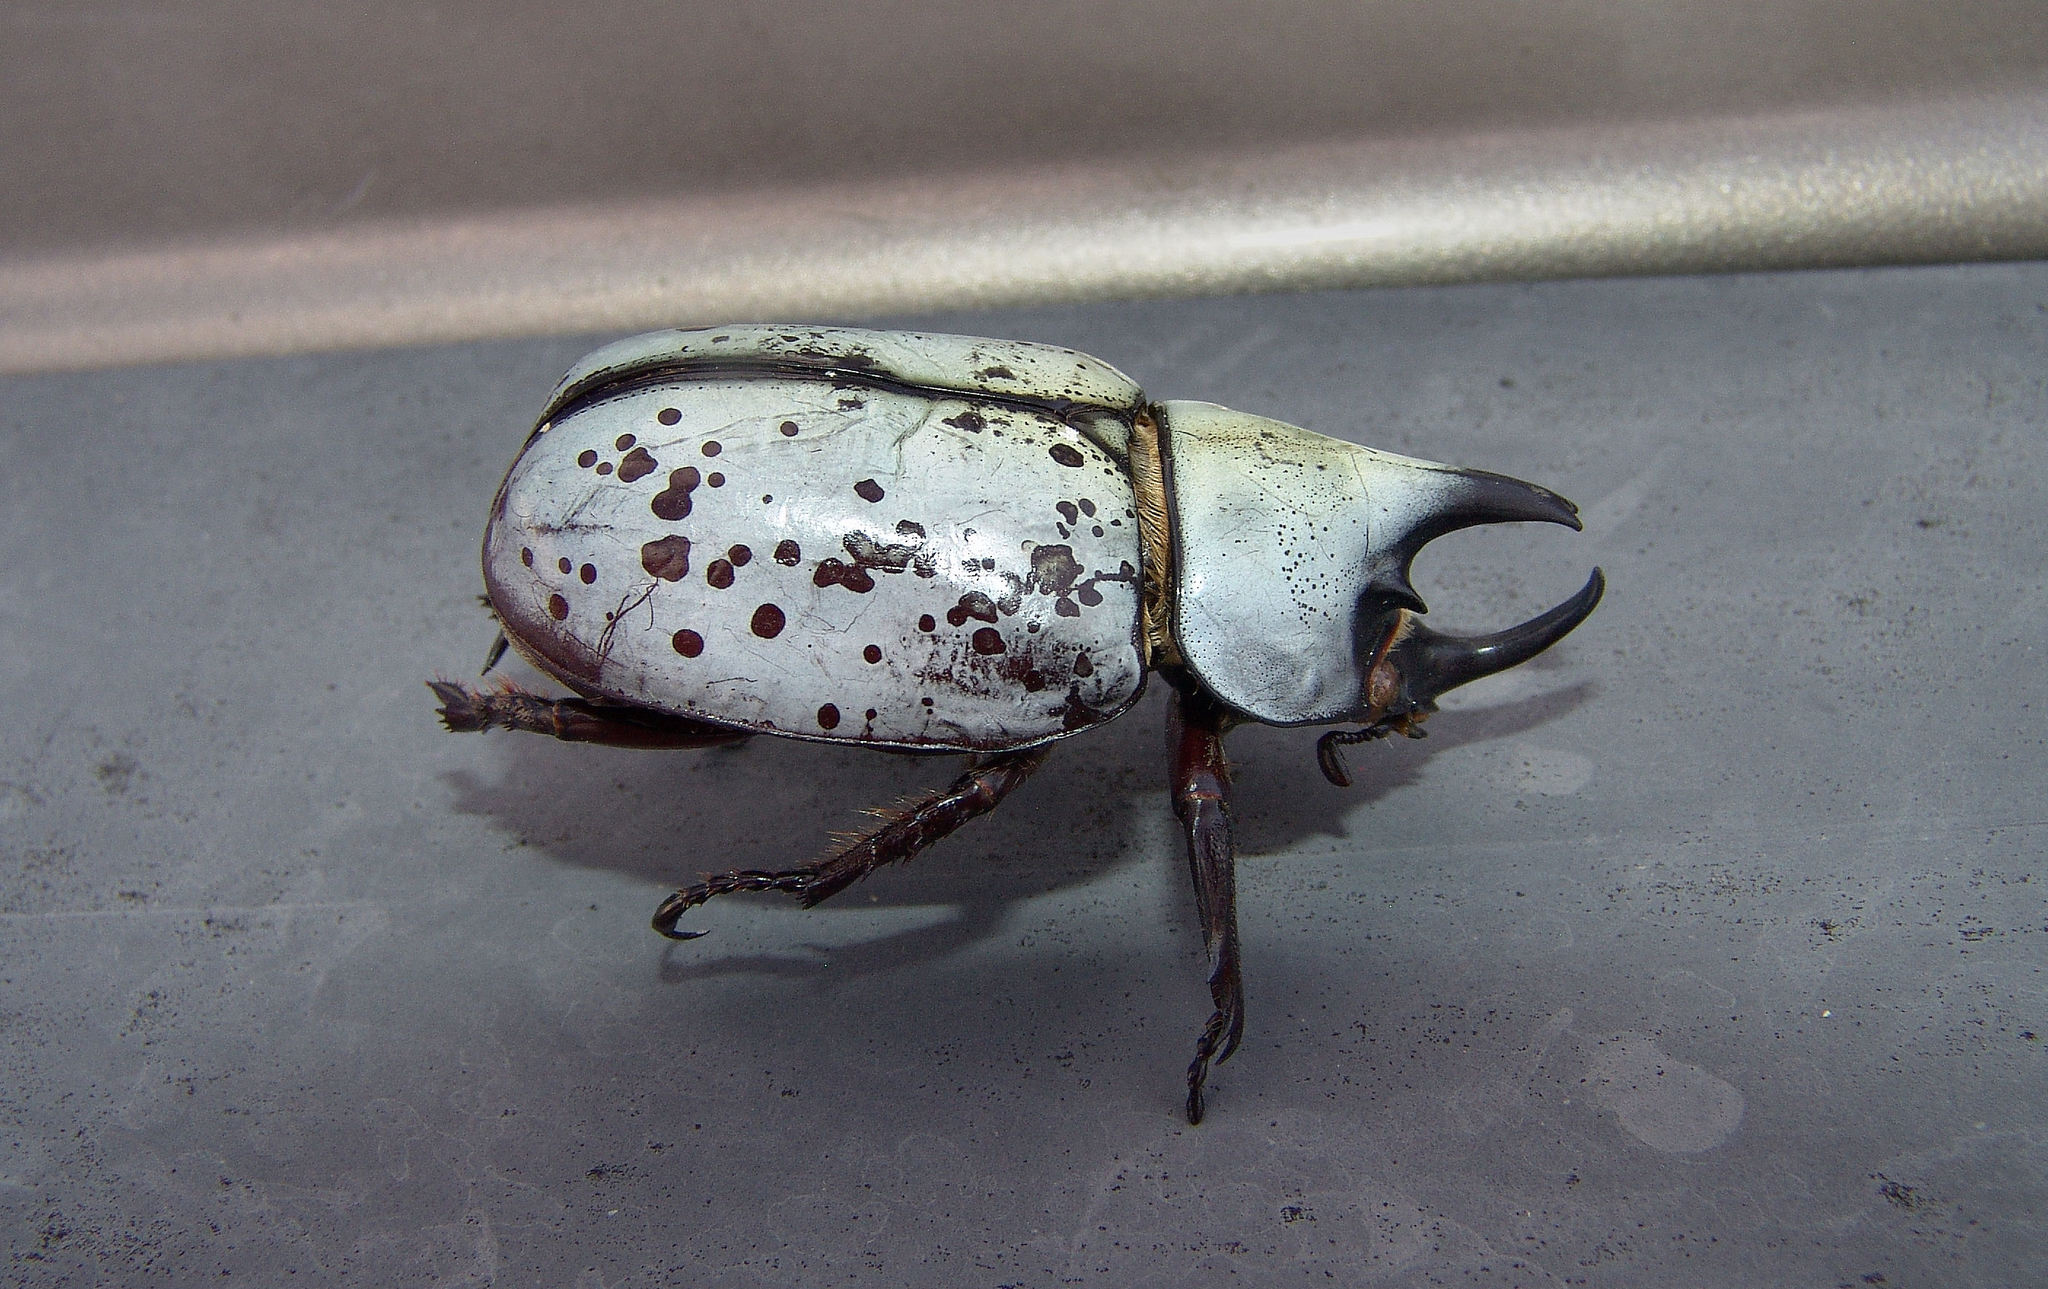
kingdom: Animalia
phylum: Arthropoda
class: Insecta
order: Coleoptera
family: Scarabaeidae
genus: Dynastes
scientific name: Dynastes tityus
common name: Eastern hercules beetle
